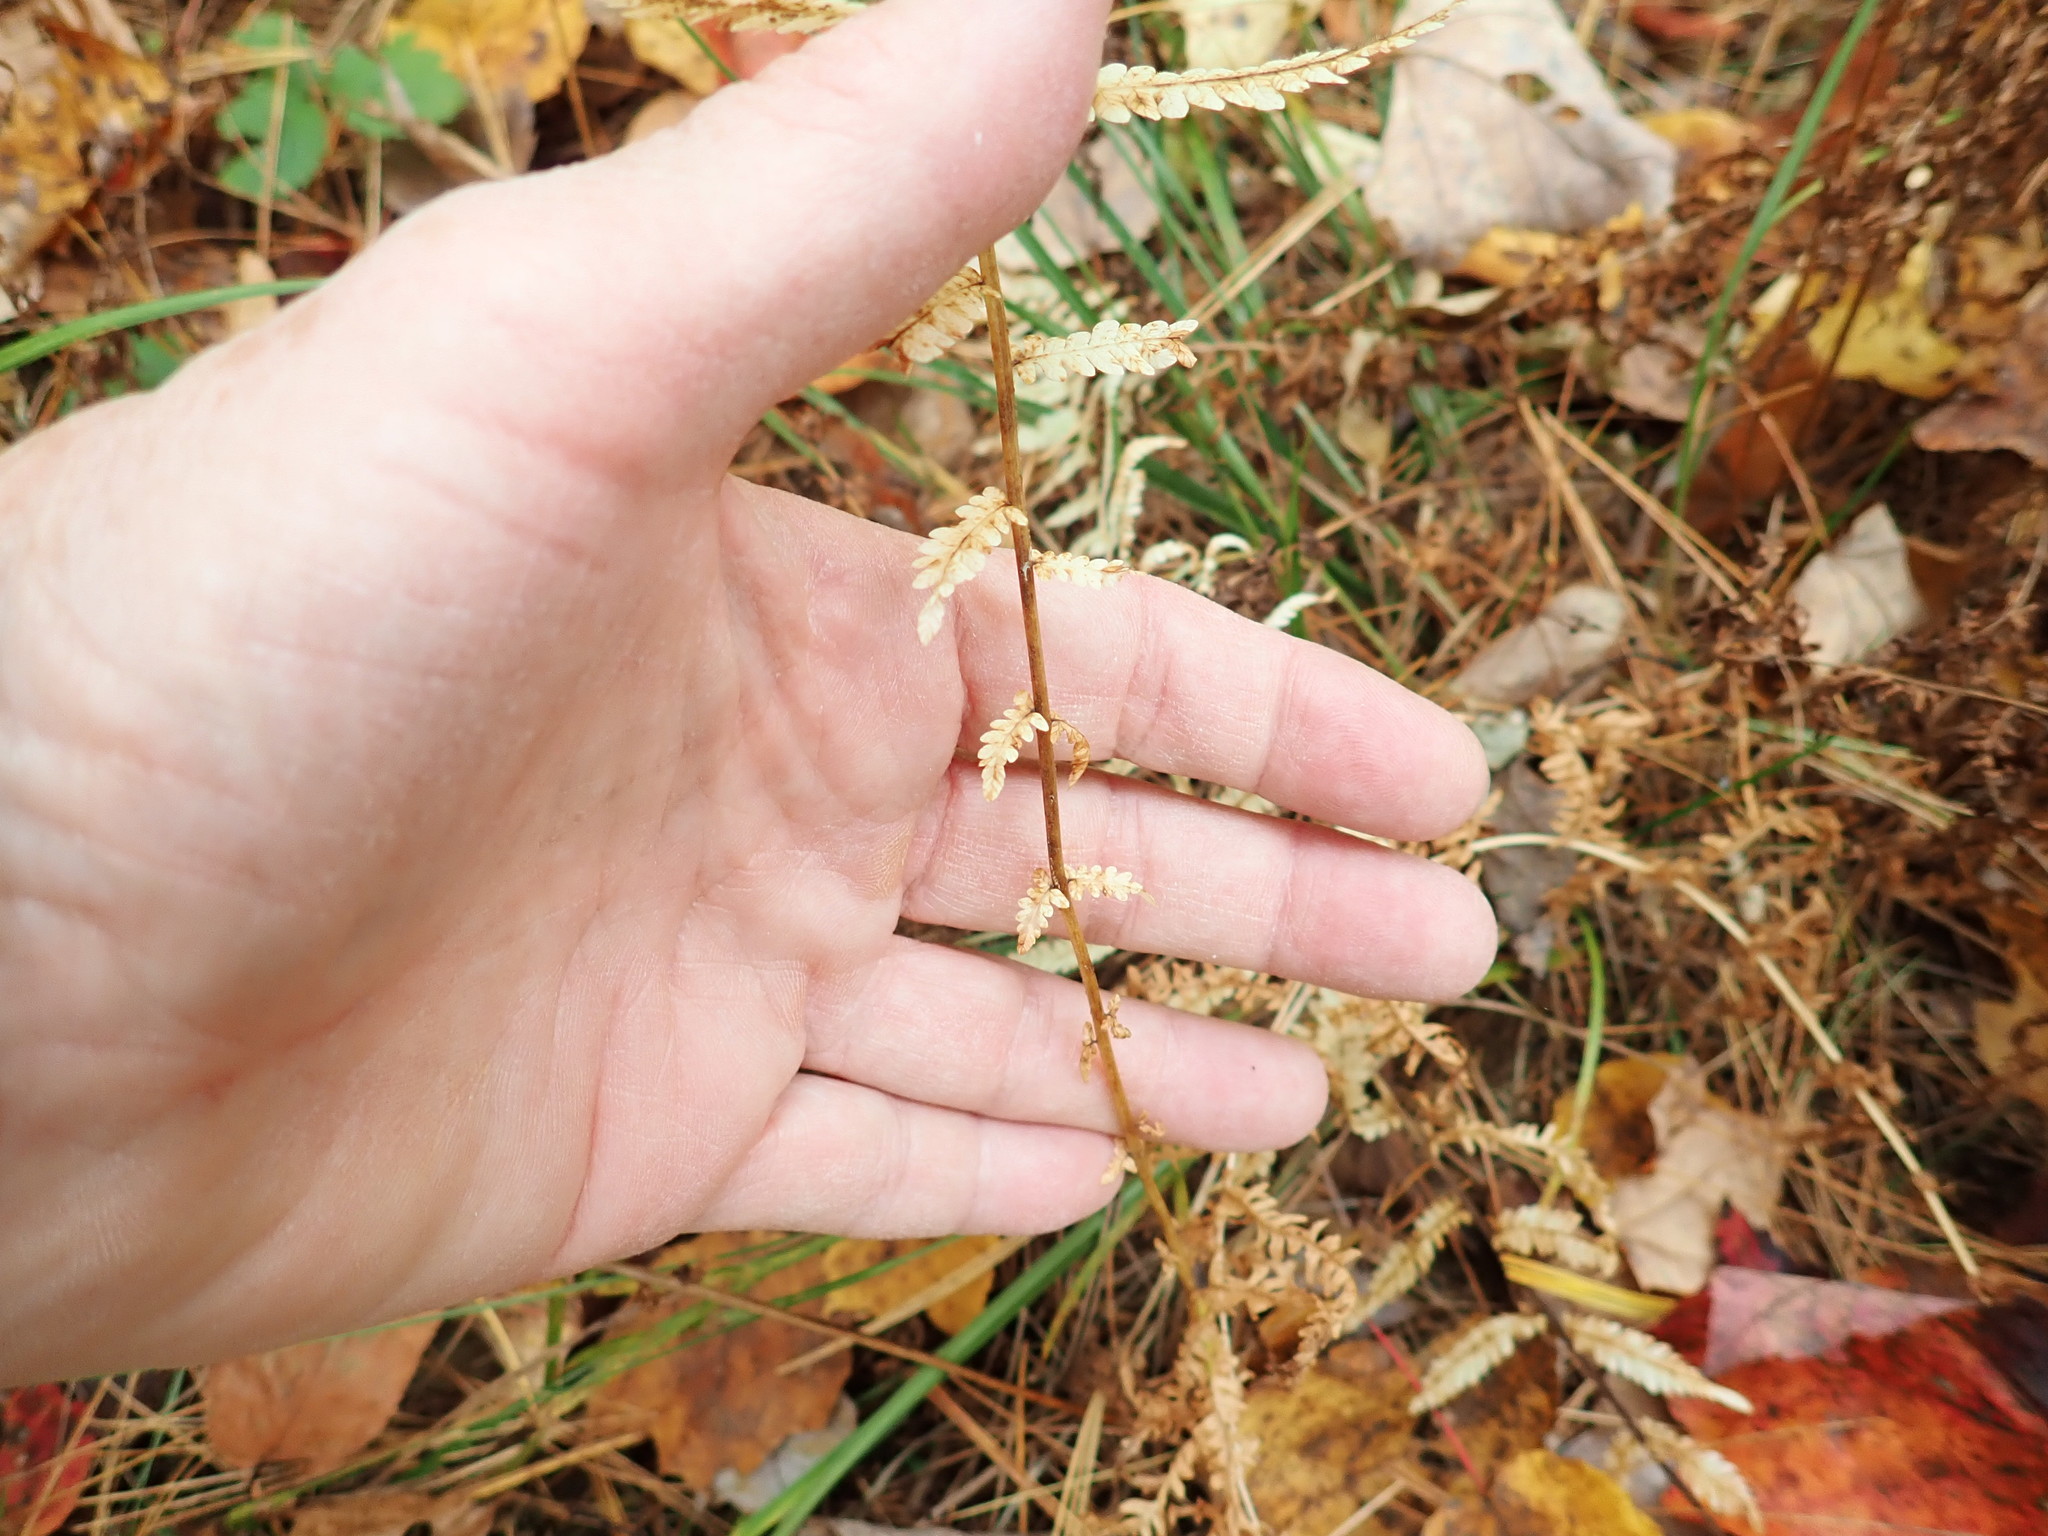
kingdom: Plantae
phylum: Tracheophyta
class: Polypodiopsida
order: Polypodiales
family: Thelypteridaceae
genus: Amauropelta
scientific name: Amauropelta noveboracensis
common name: New york fern
